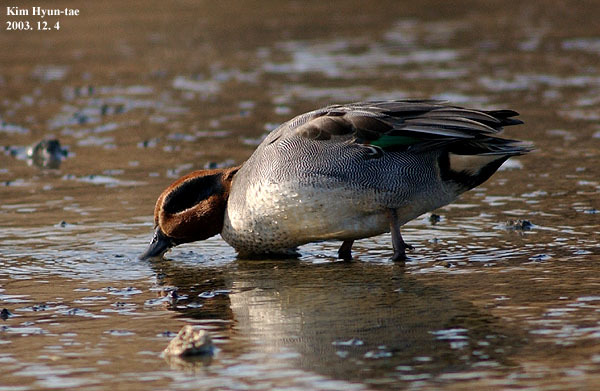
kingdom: Animalia
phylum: Chordata
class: Aves
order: Anseriformes
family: Anatidae
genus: Anas
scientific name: Anas crecca
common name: Eurasian teal
